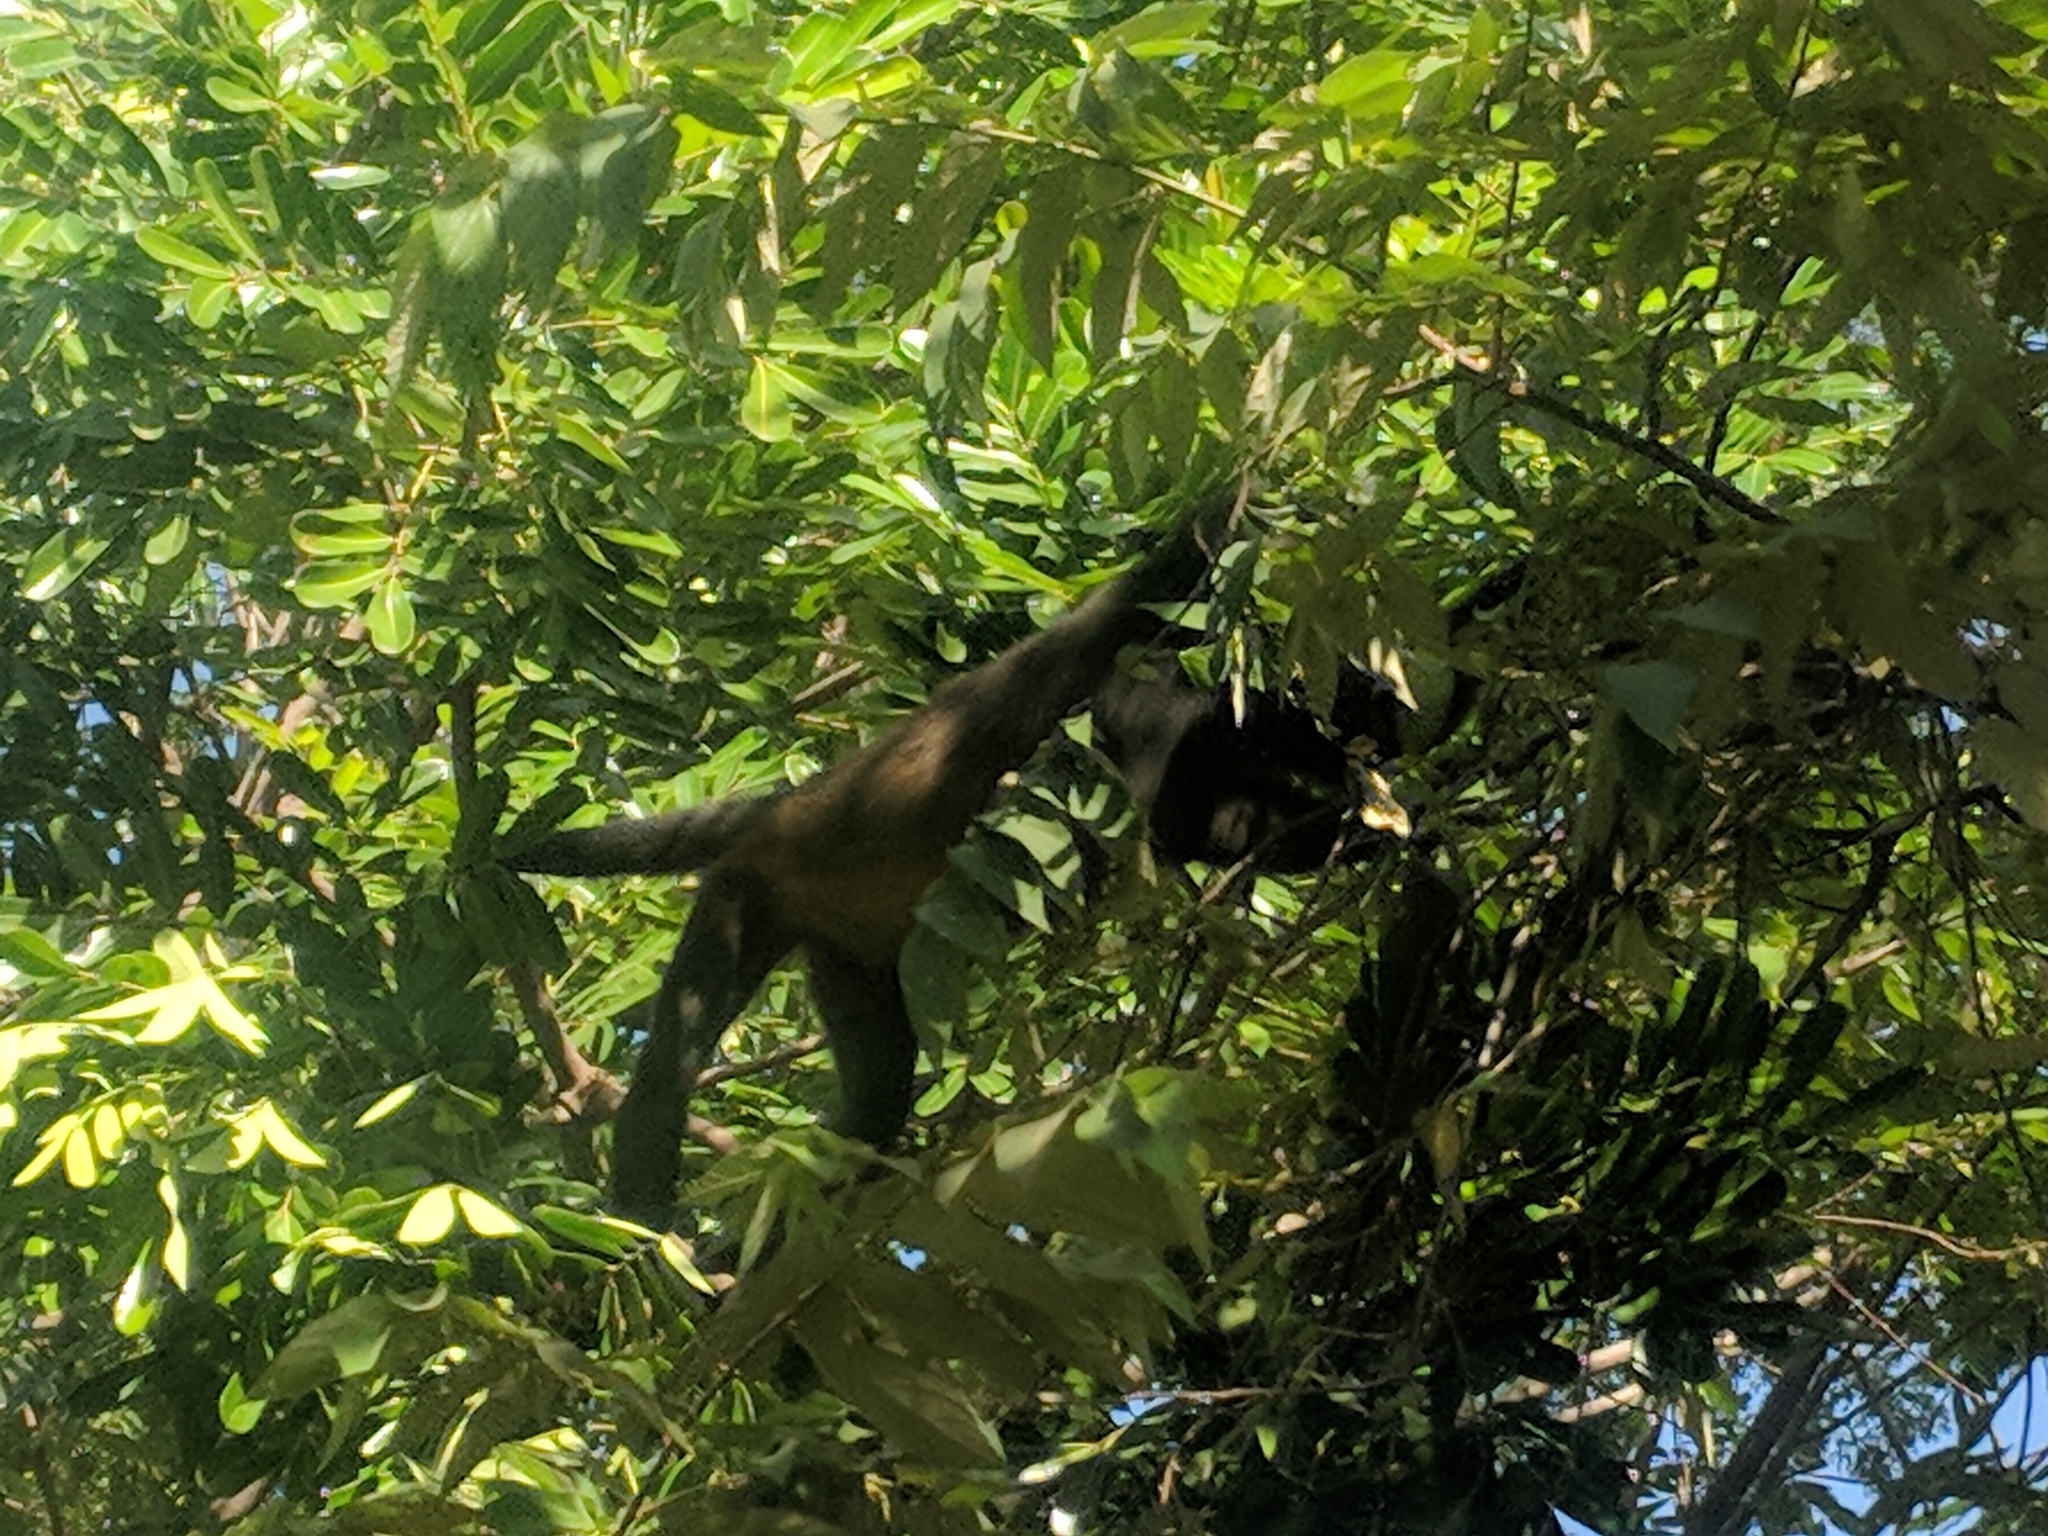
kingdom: Animalia
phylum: Chordata
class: Mammalia
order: Primates
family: Atelidae
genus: Alouatta
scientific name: Alouatta palliata
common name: Mantled howler
